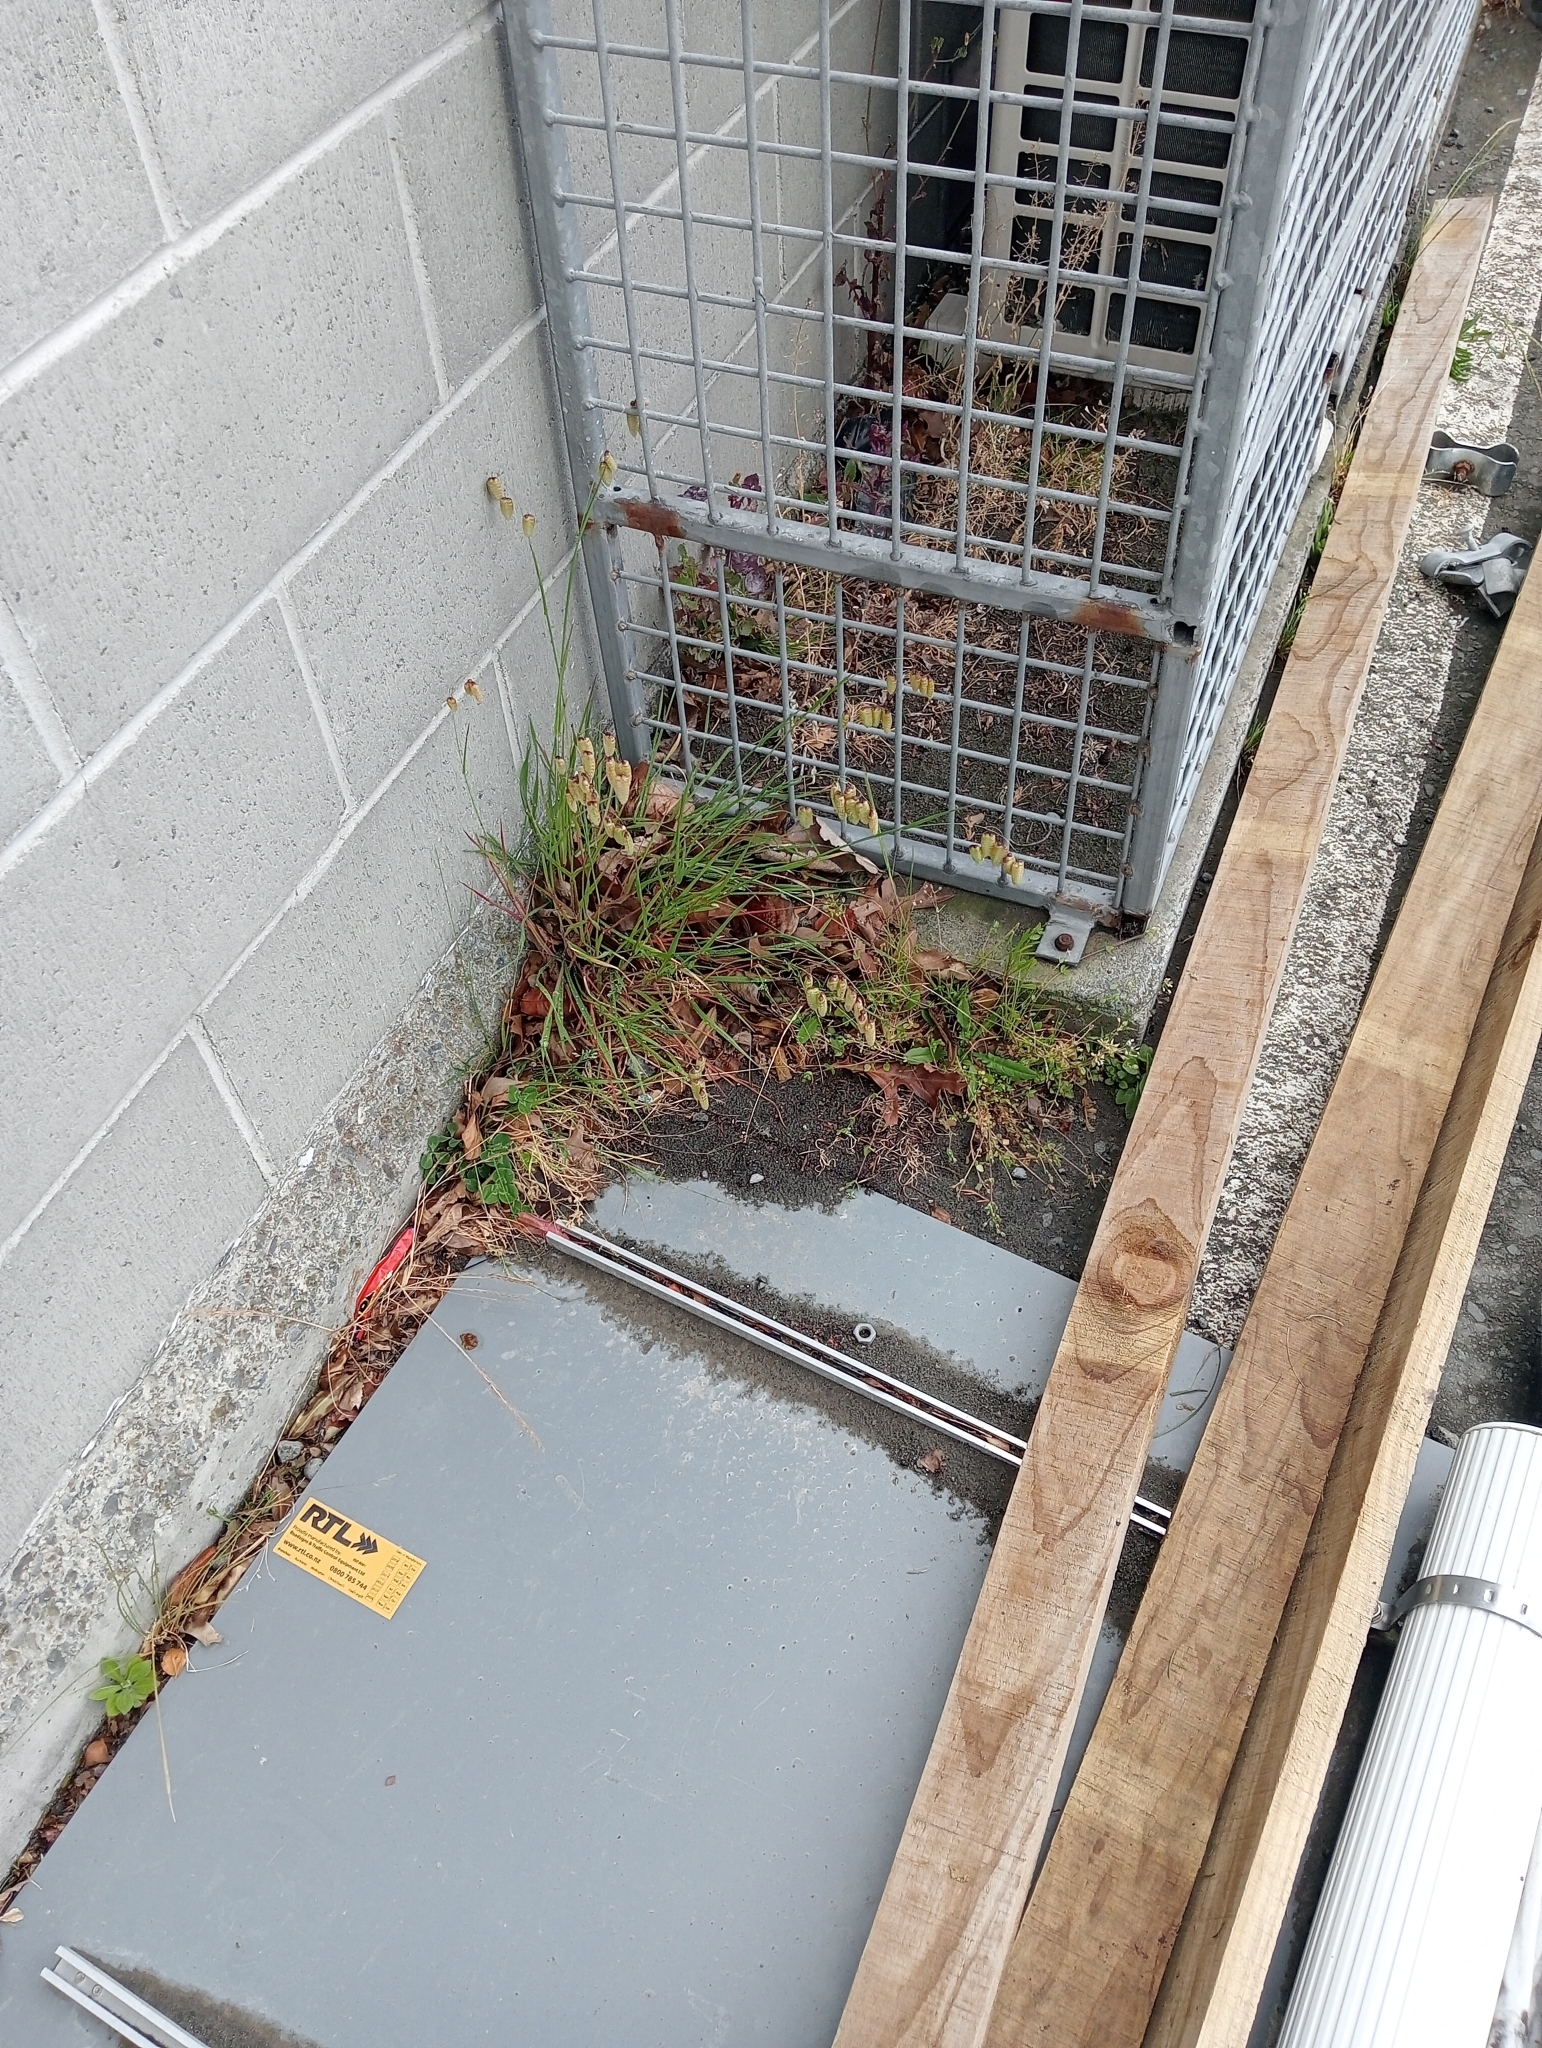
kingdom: Plantae
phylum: Tracheophyta
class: Liliopsida
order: Poales
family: Poaceae
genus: Briza
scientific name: Briza maxima
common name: Big quakinggrass
